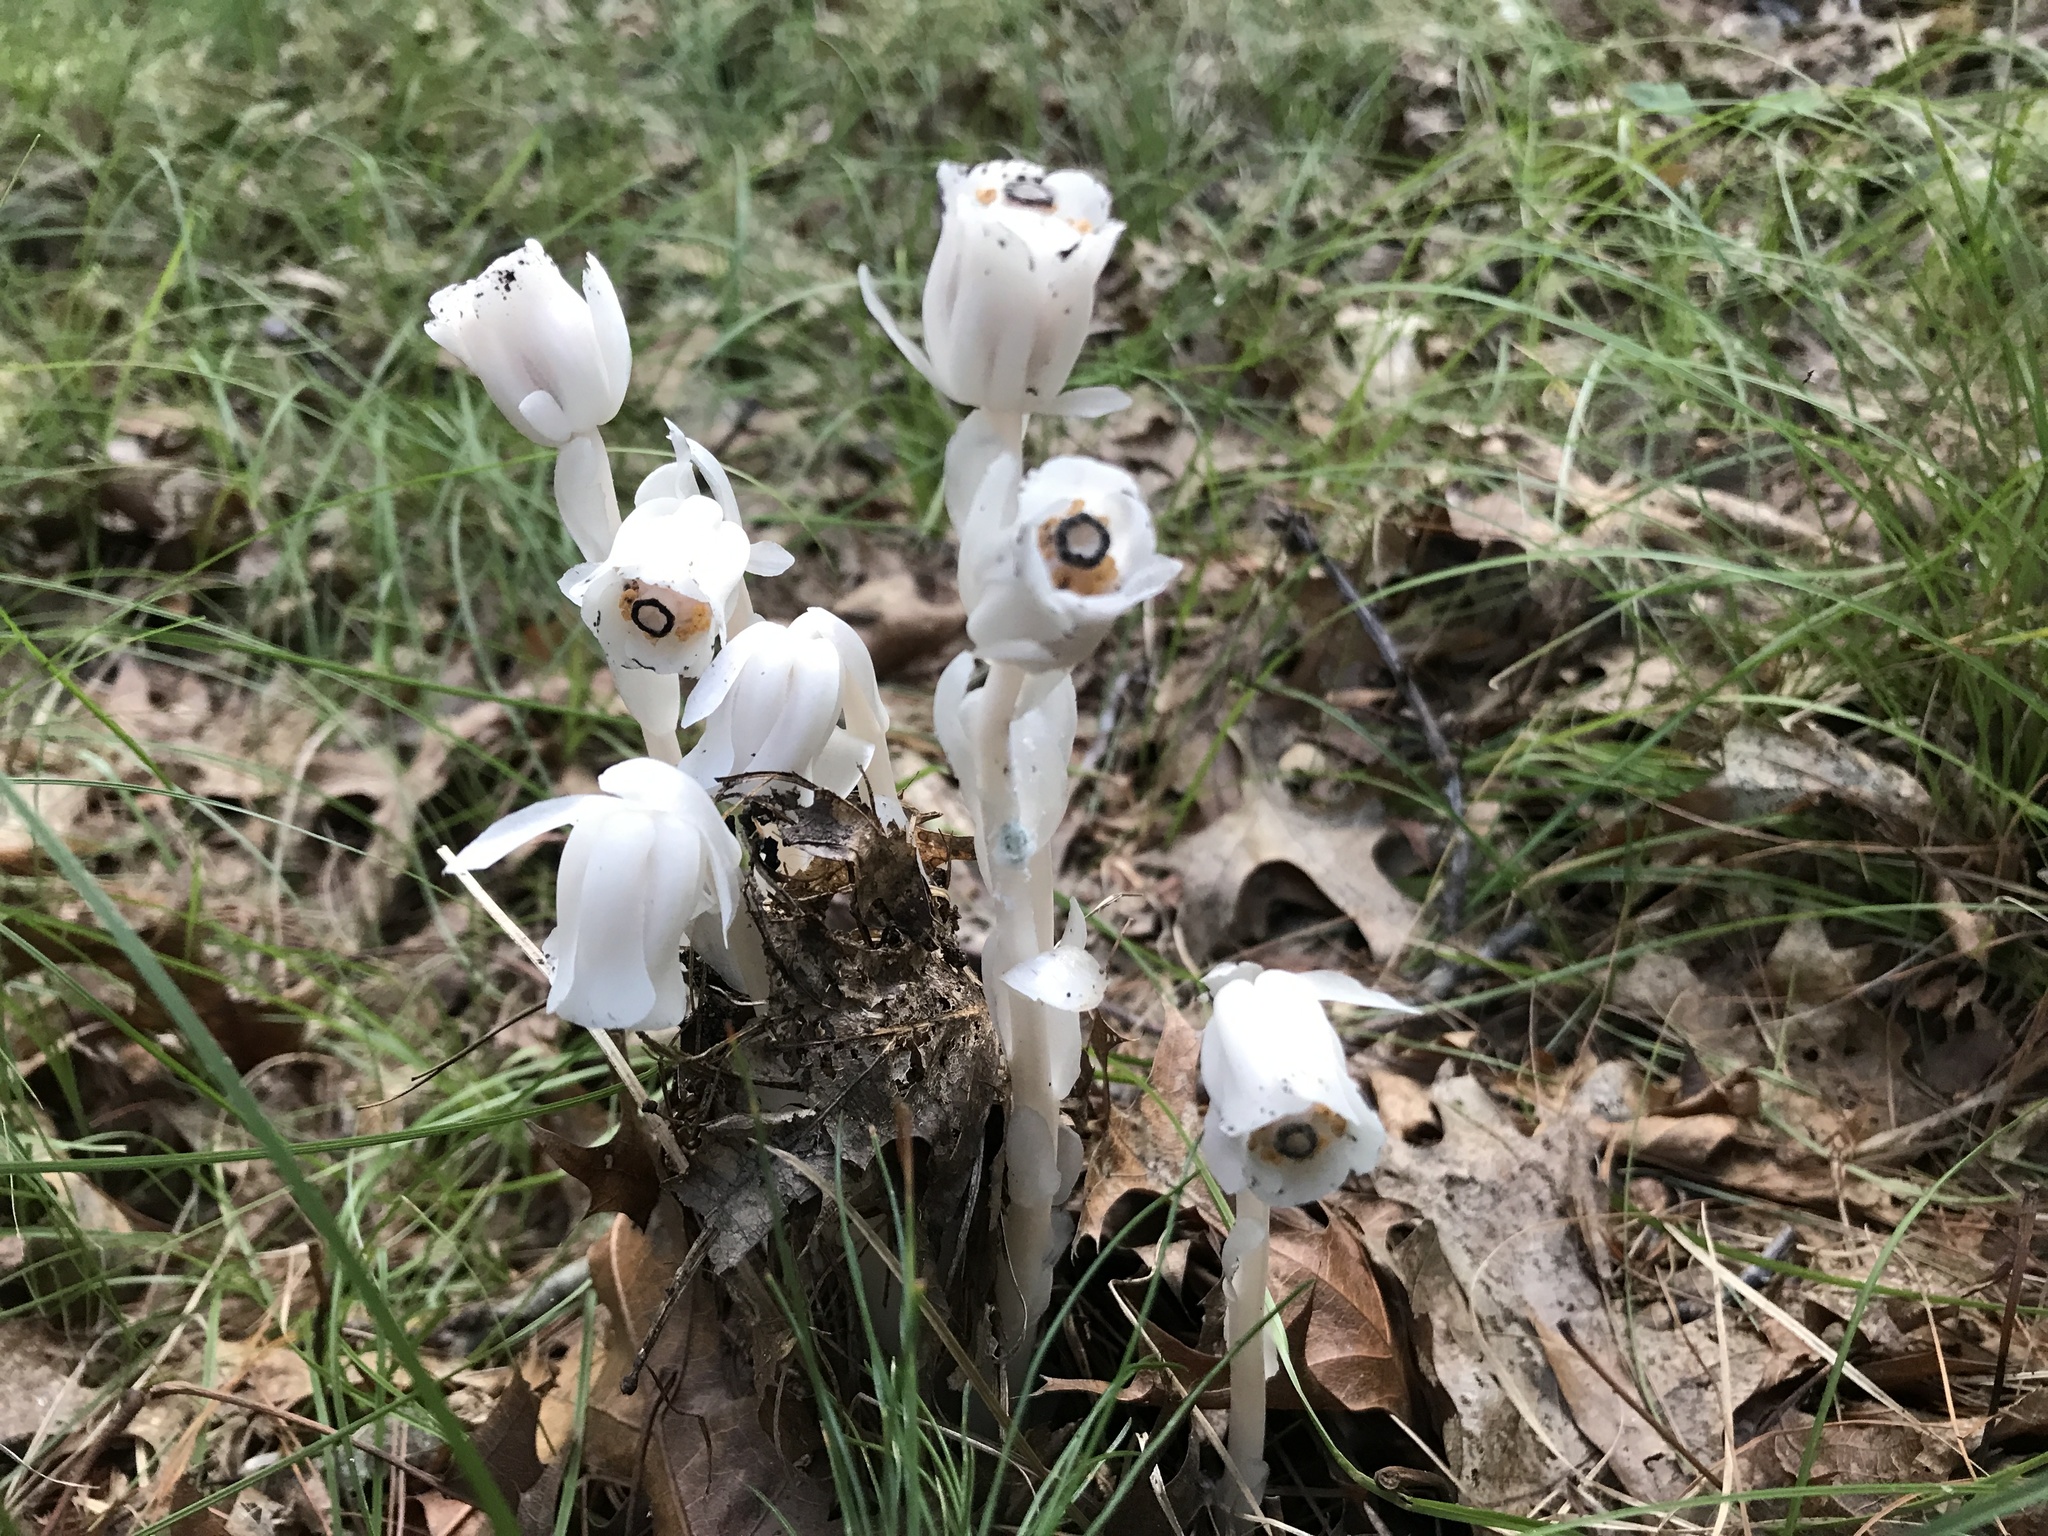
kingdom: Plantae
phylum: Tracheophyta
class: Magnoliopsida
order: Ericales
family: Ericaceae
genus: Monotropa
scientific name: Monotropa uniflora
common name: Convulsion root
